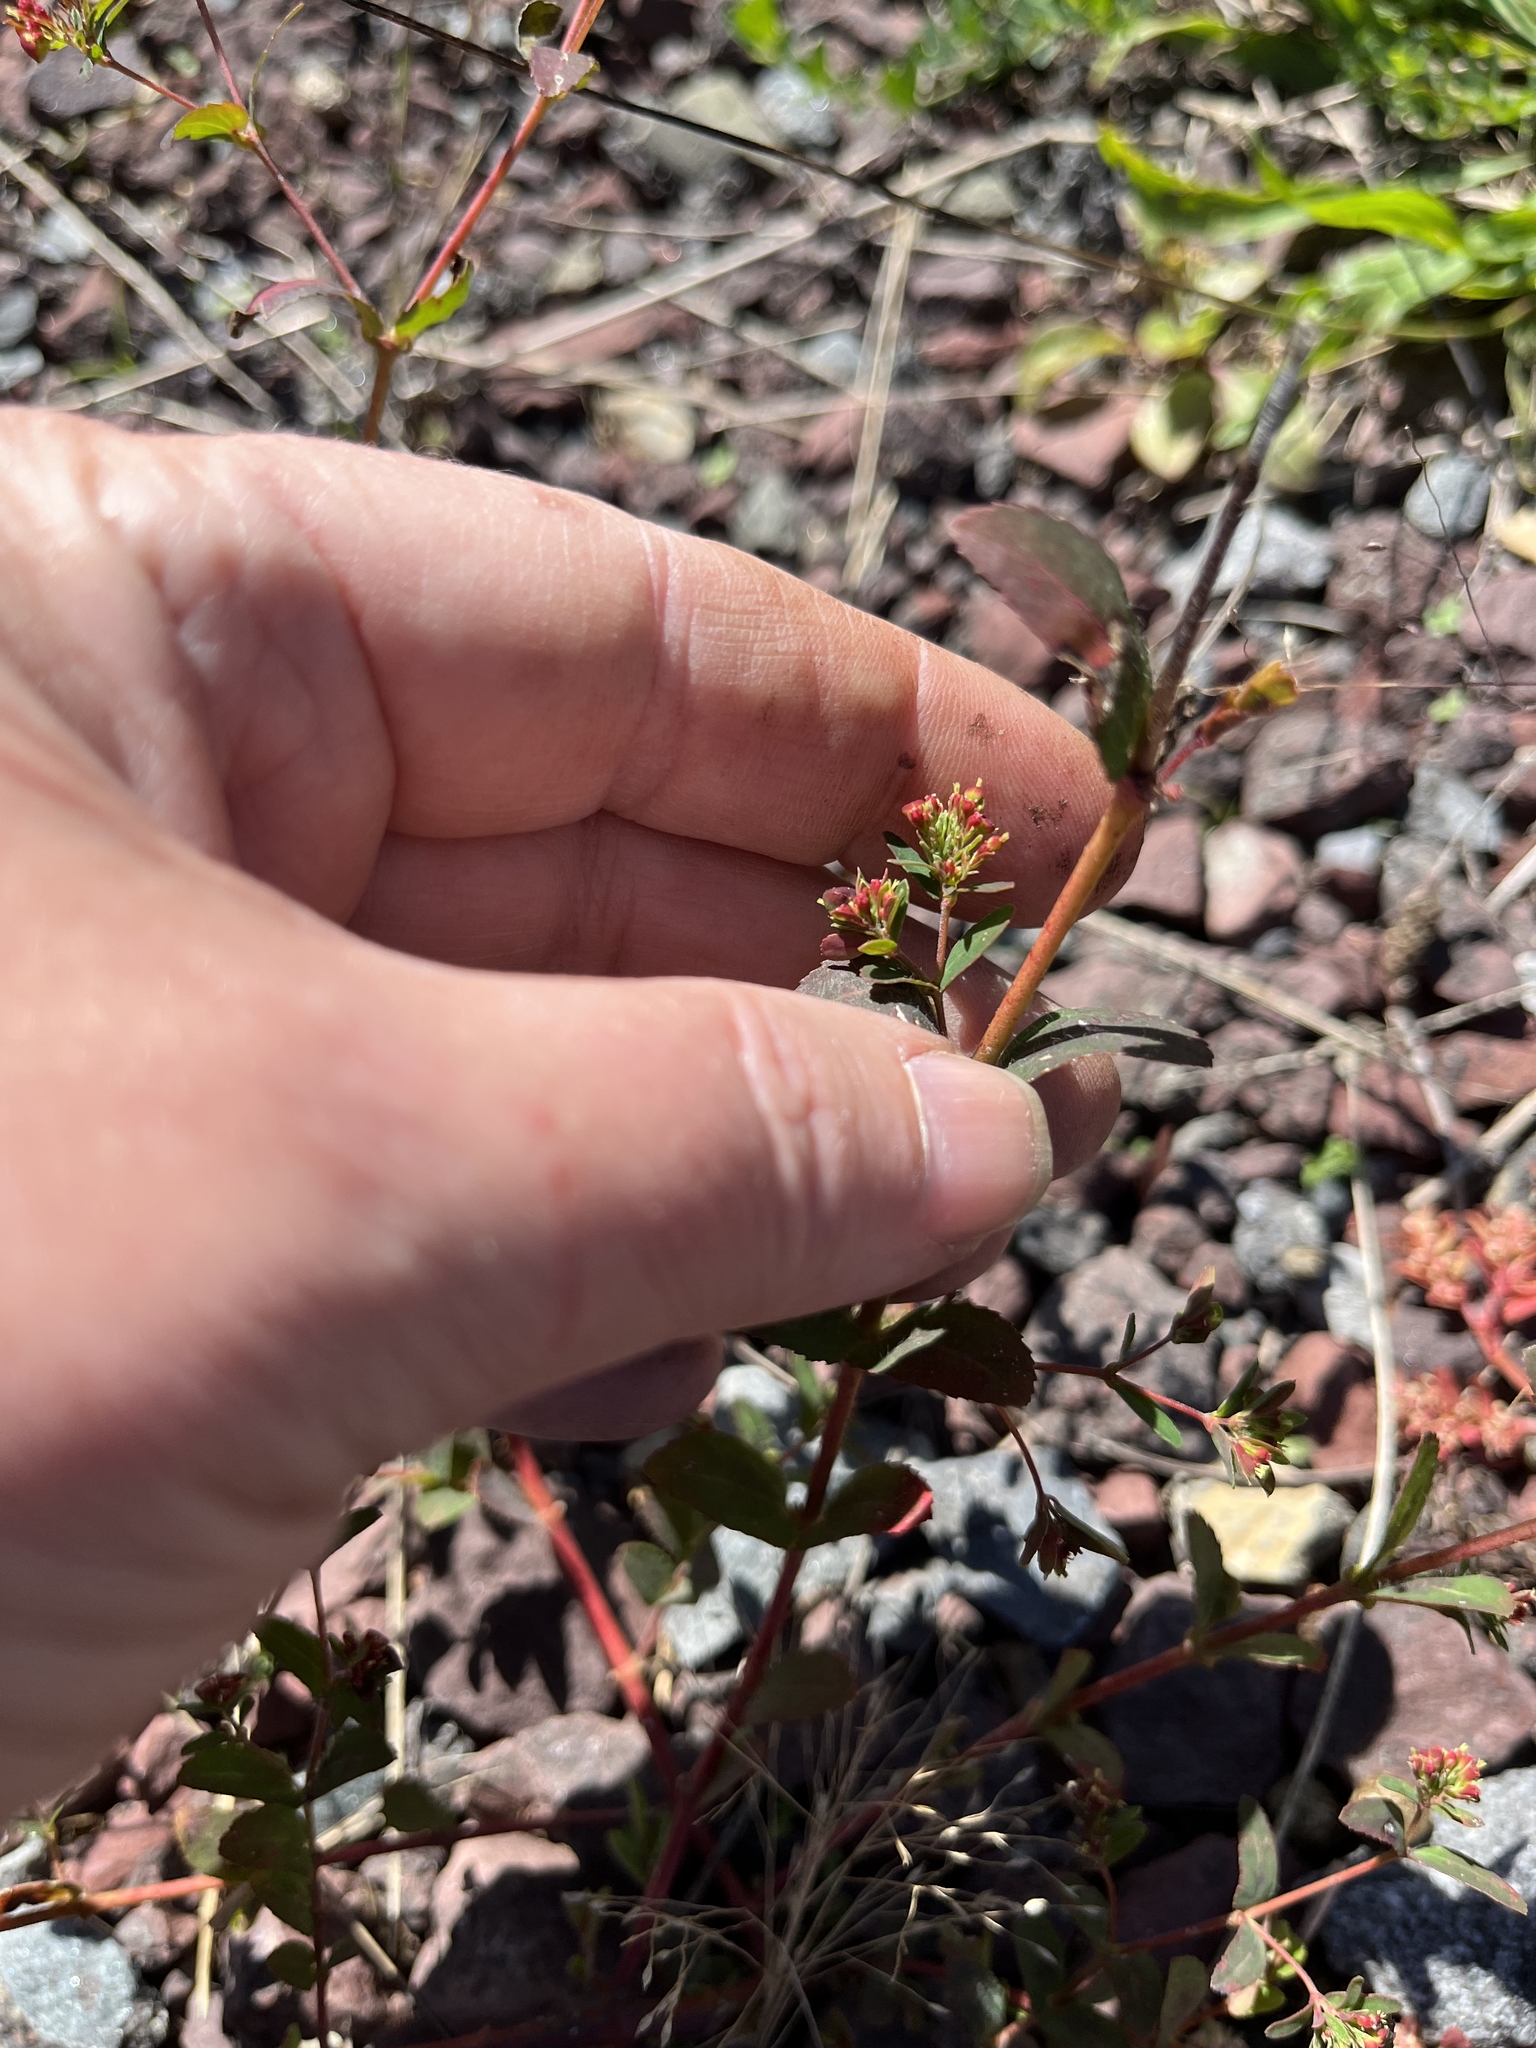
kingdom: Plantae
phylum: Tracheophyta
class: Magnoliopsida
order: Malpighiales
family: Euphorbiaceae
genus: Euphorbia
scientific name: Euphorbia nutans
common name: Eyebane
